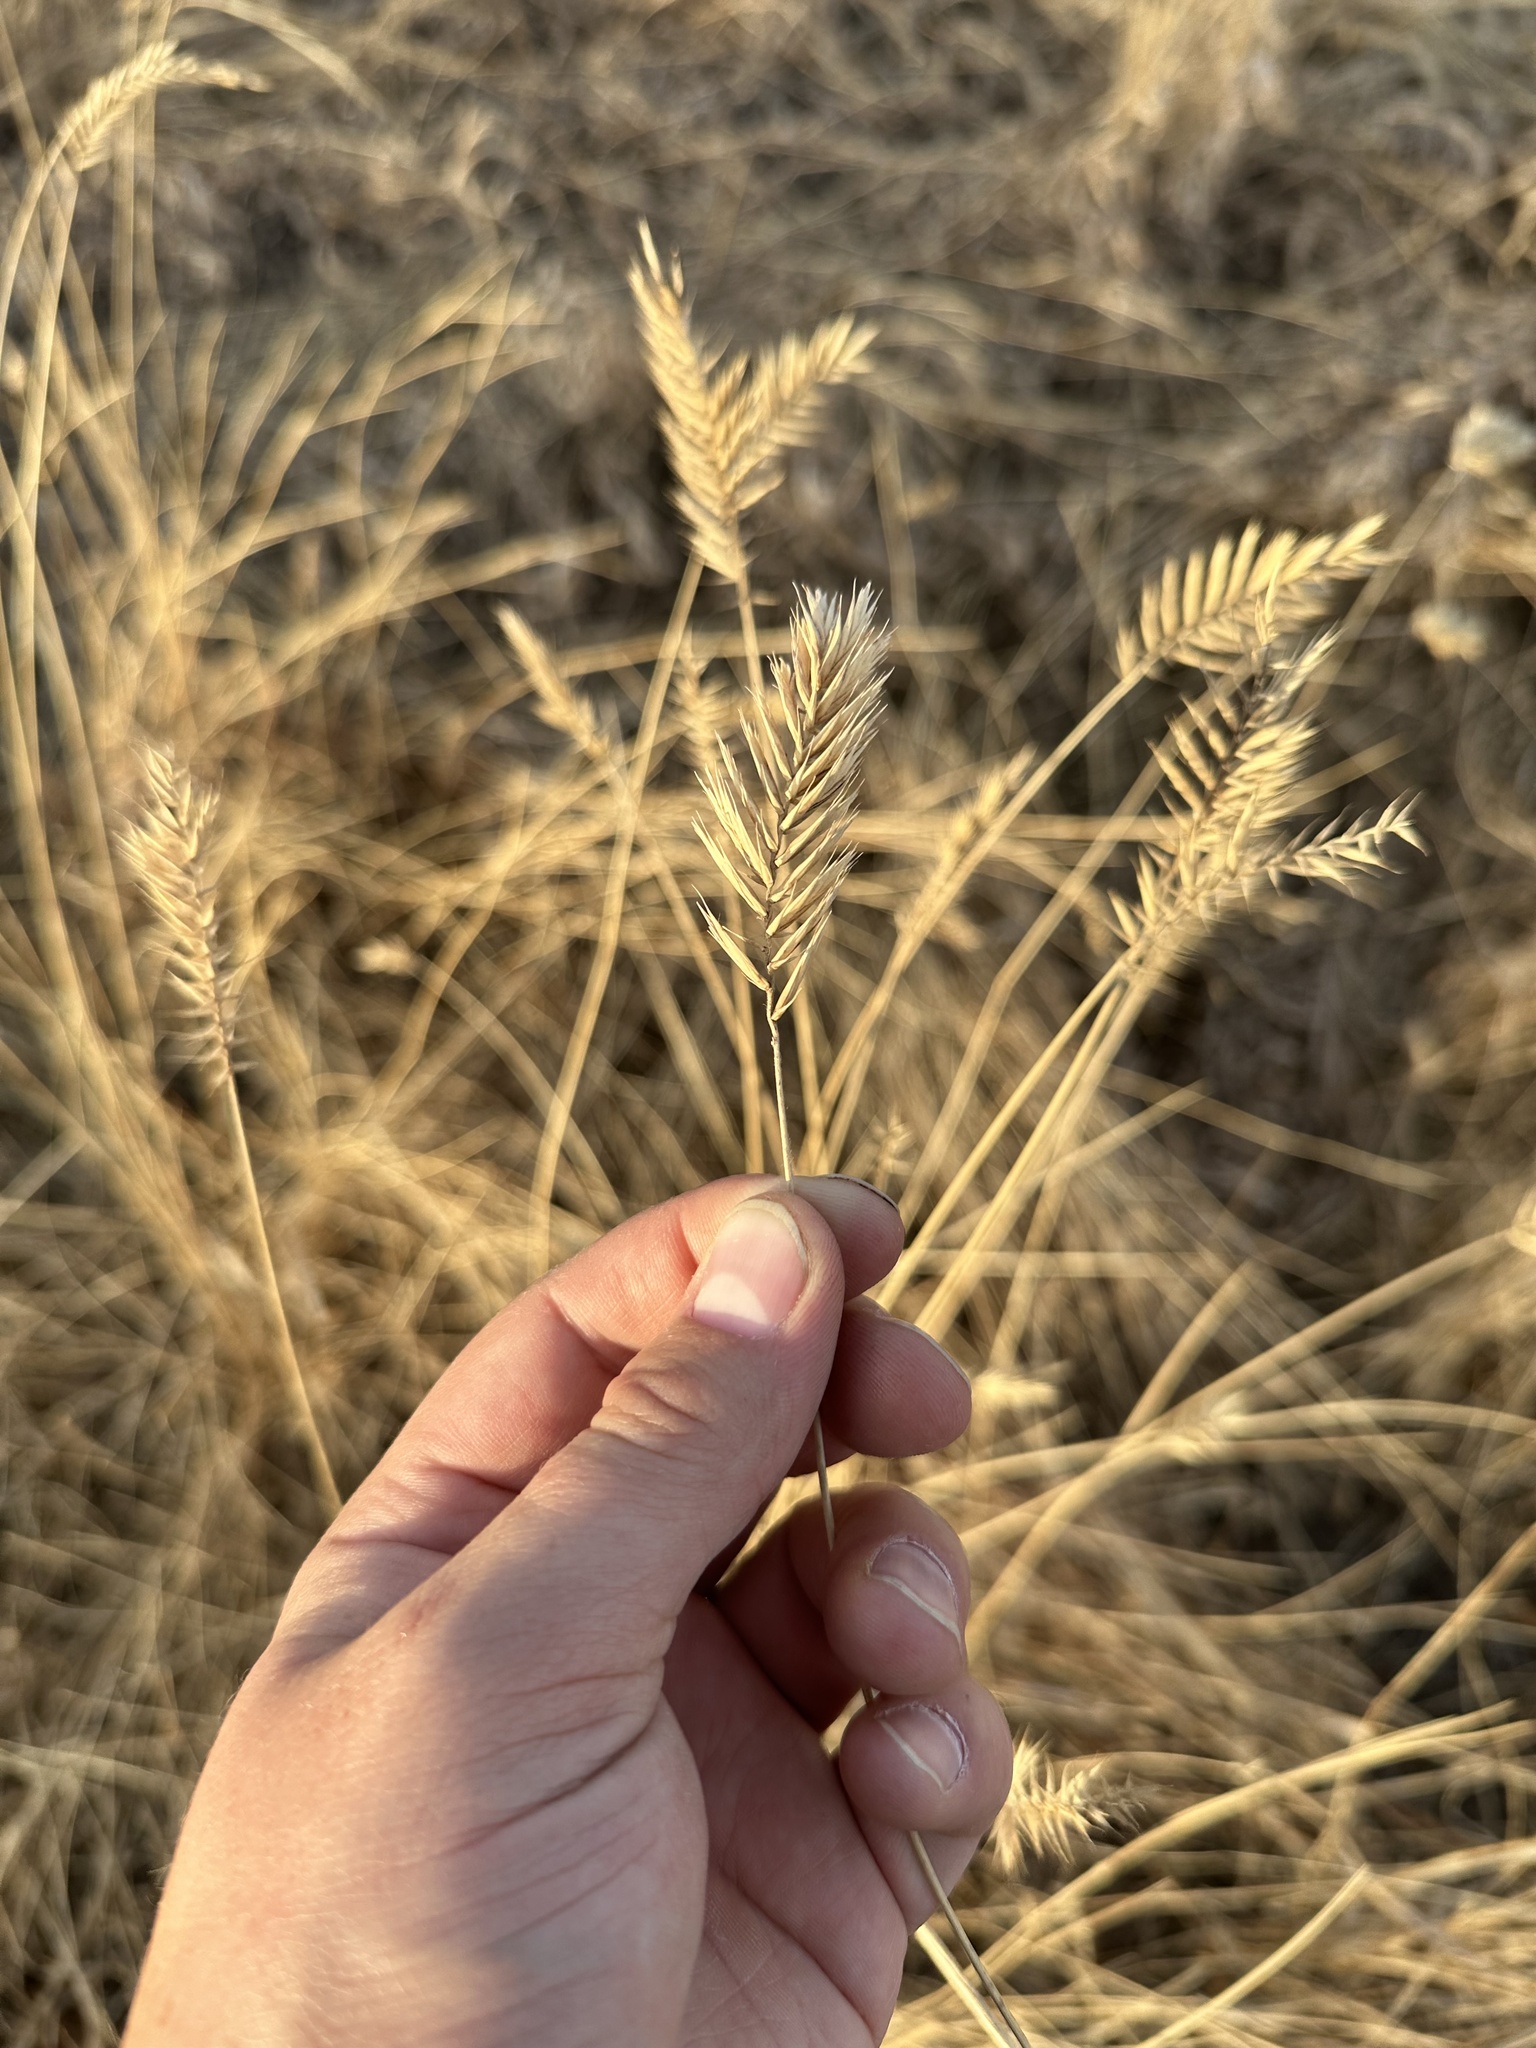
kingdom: Plantae
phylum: Tracheophyta
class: Liliopsida
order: Poales
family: Poaceae
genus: Agropyron
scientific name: Agropyron cristatum
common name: Crested wheatgrass
